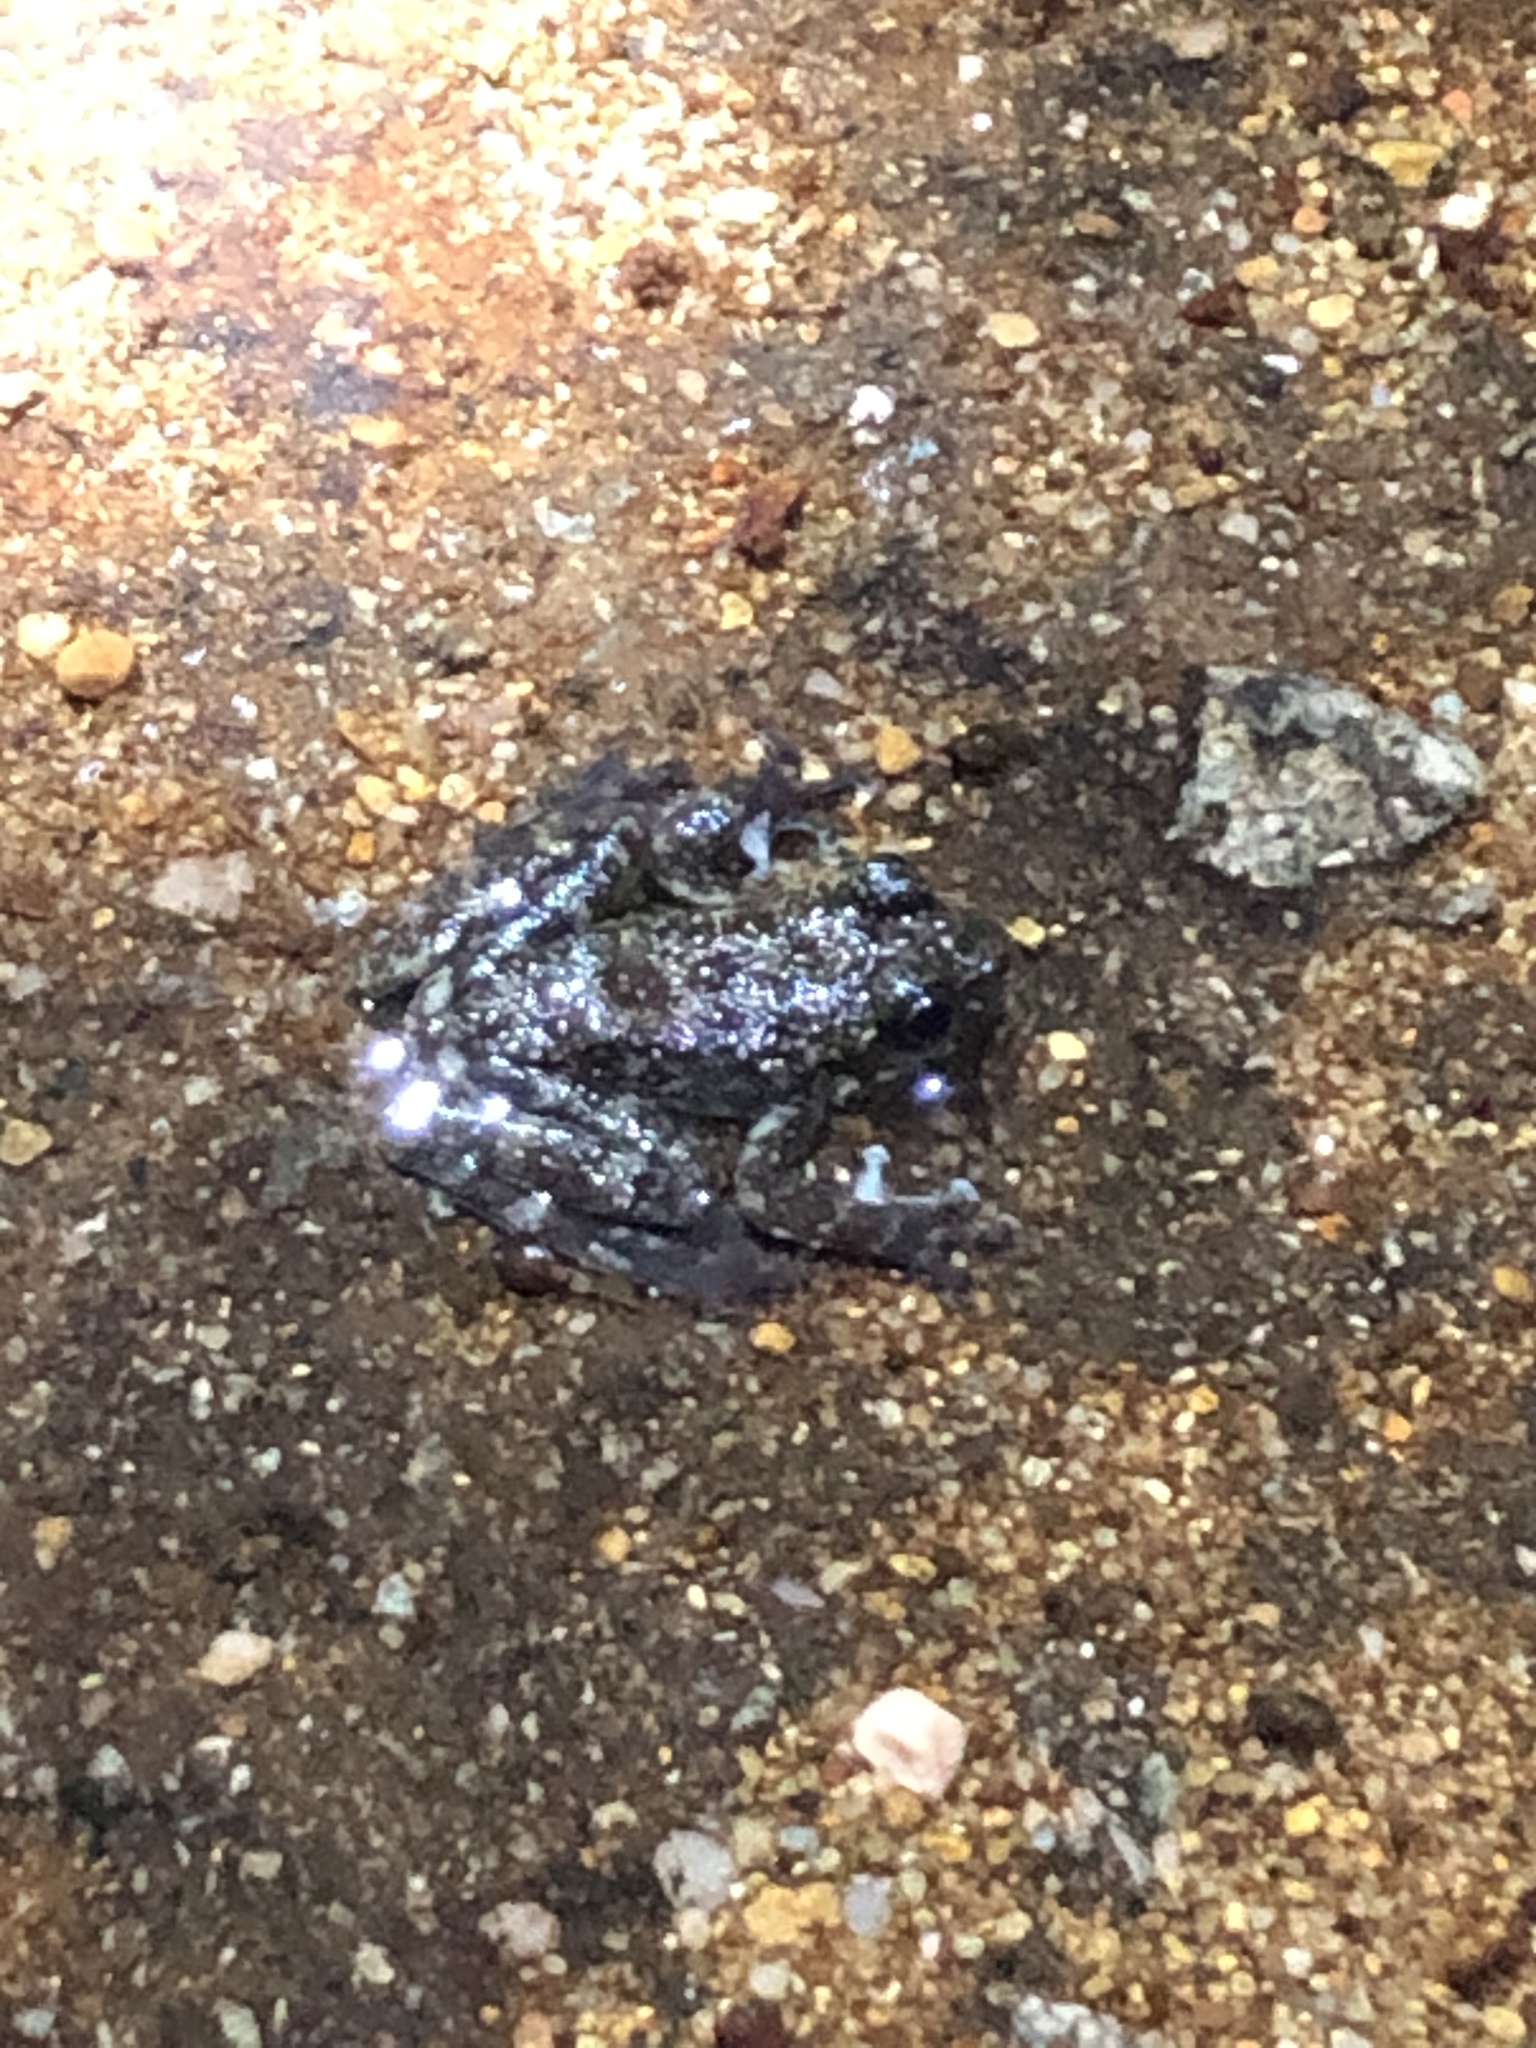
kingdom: Animalia
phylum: Chordata
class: Amphibia
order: Anura
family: Ranidae
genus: Amolops
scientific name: Amolops hongkongensis
